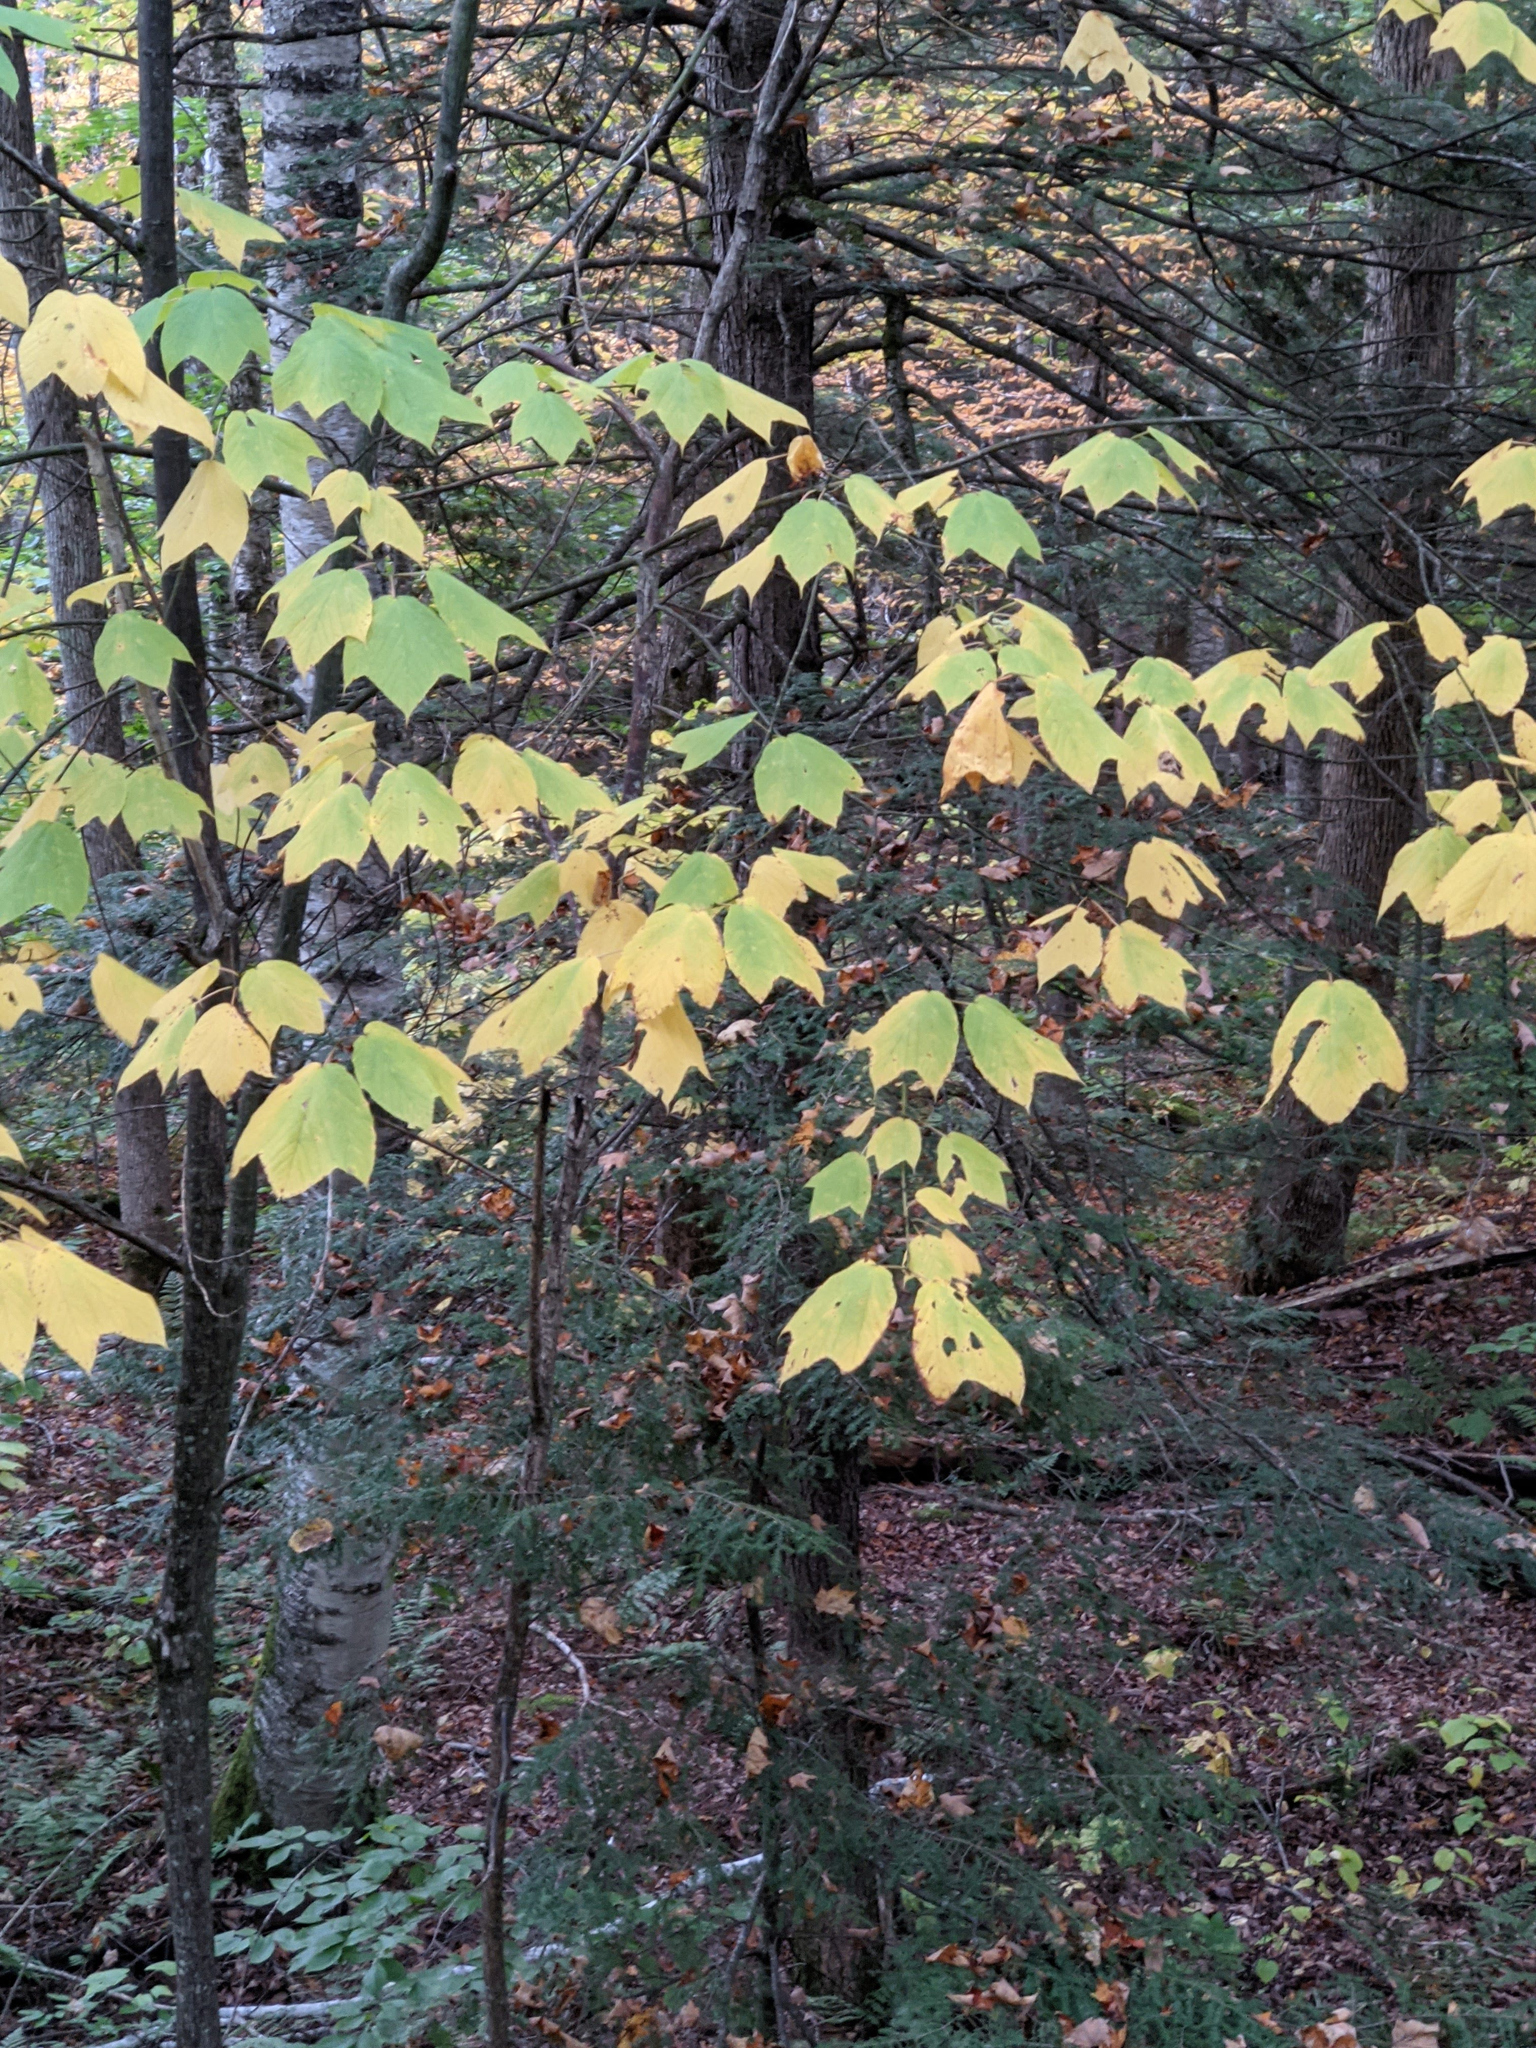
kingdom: Plantae
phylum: Tracheophyta
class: Magnoliopsida
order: Sapindales
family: Sapindaceae
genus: Acer
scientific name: Acer pensylvanicum
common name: Moosewood
